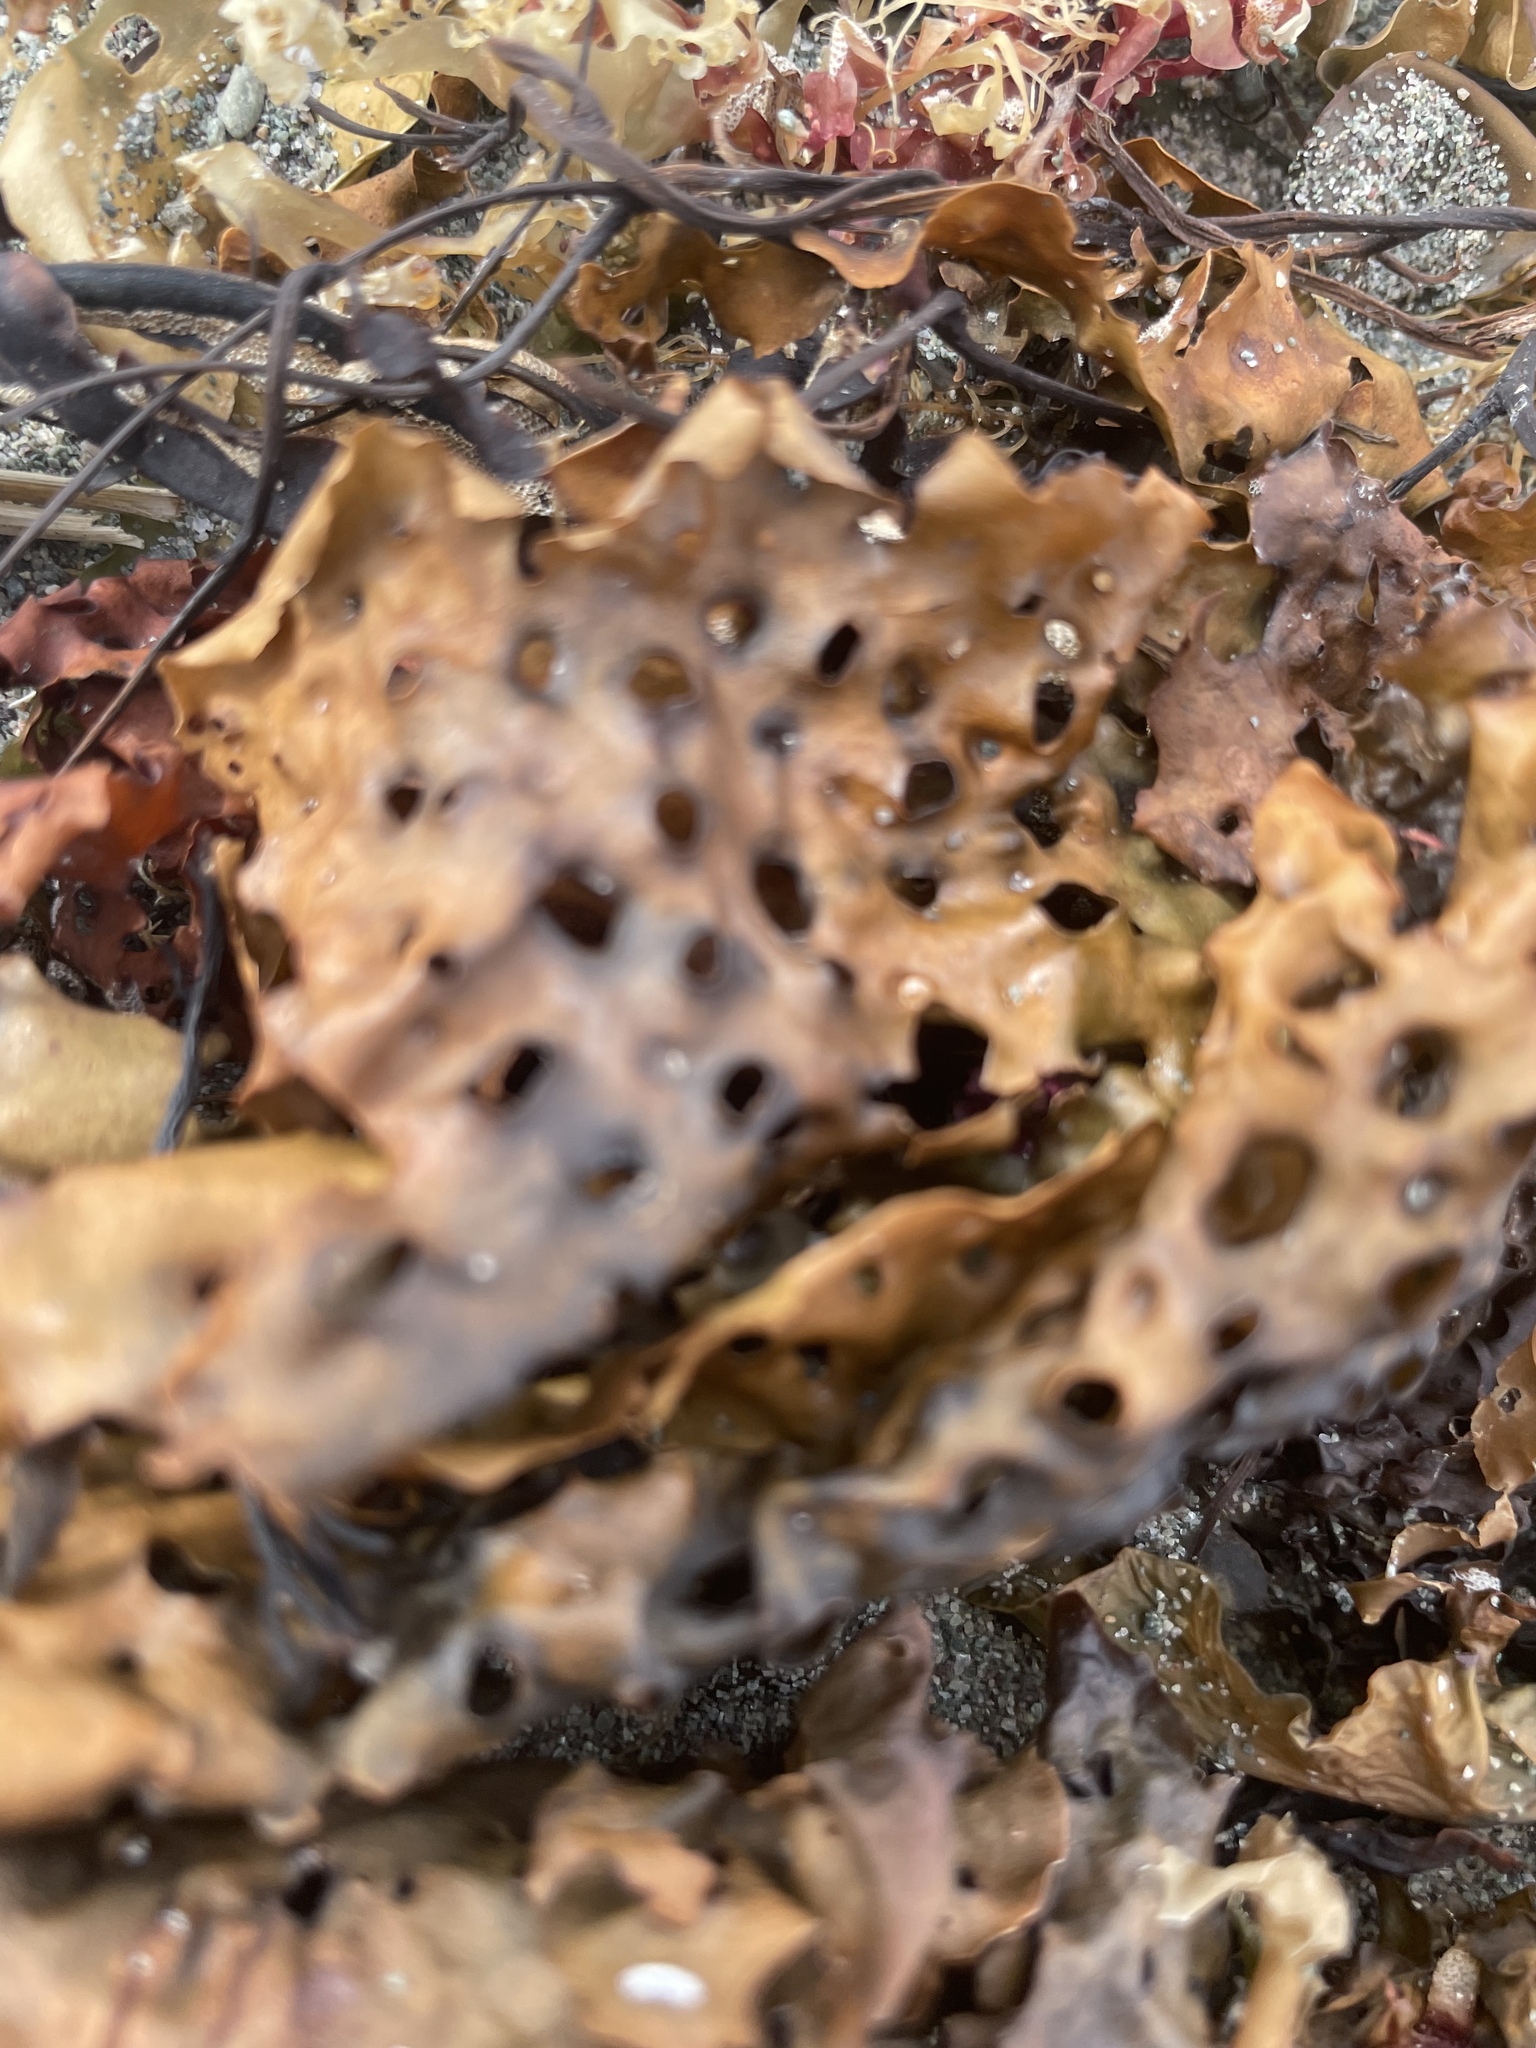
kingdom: Chromista
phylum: Ochrophyta
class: Phaeophyceae
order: Laminariales
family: Costariaceae
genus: Agarum
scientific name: Agarum clathratum
